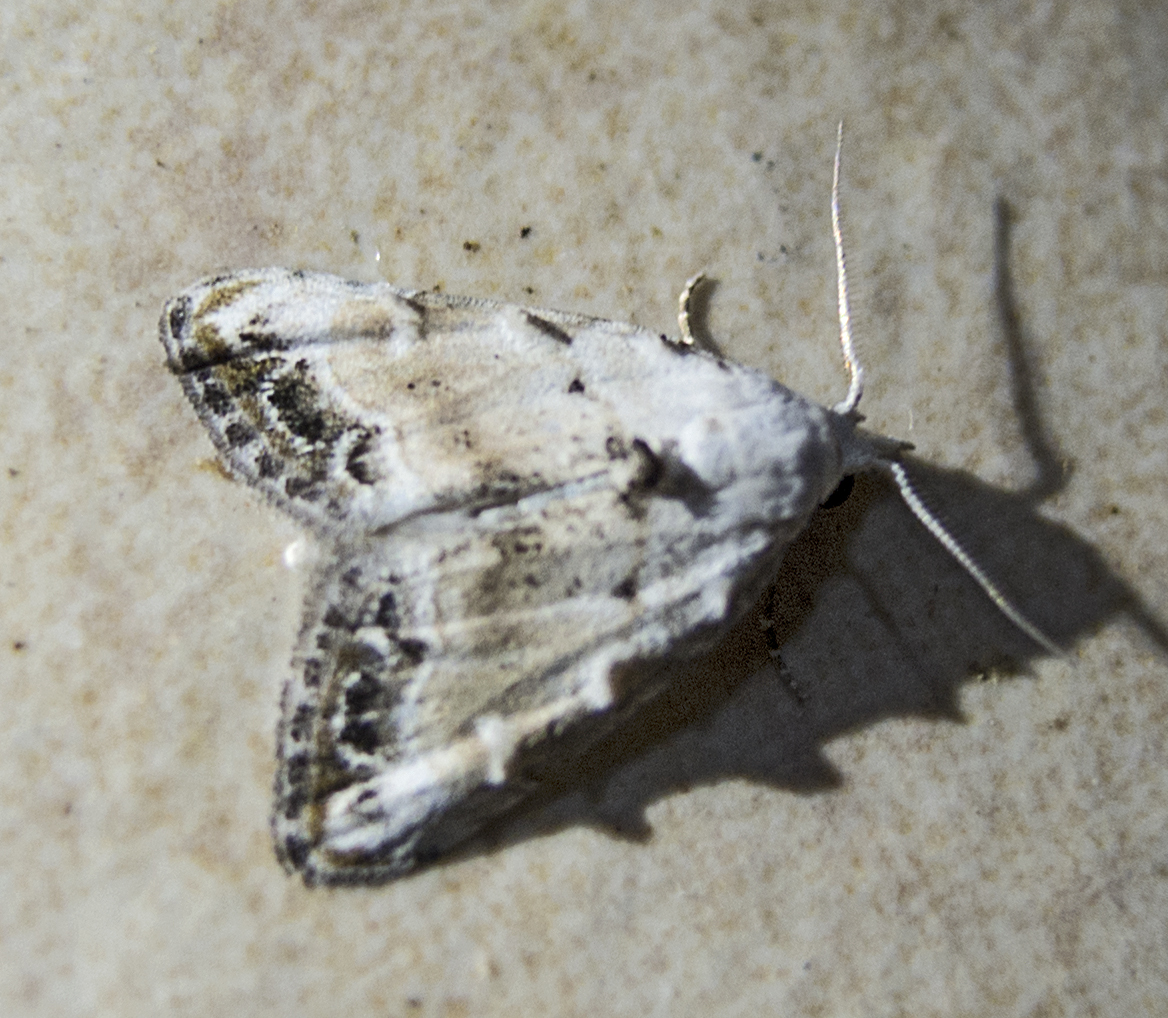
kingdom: Animalia
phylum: Arthropoda
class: Insecta
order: Lepidoptera
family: Nolidae
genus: Nola
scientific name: Nola chlamitulalis
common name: Jersey black arches
